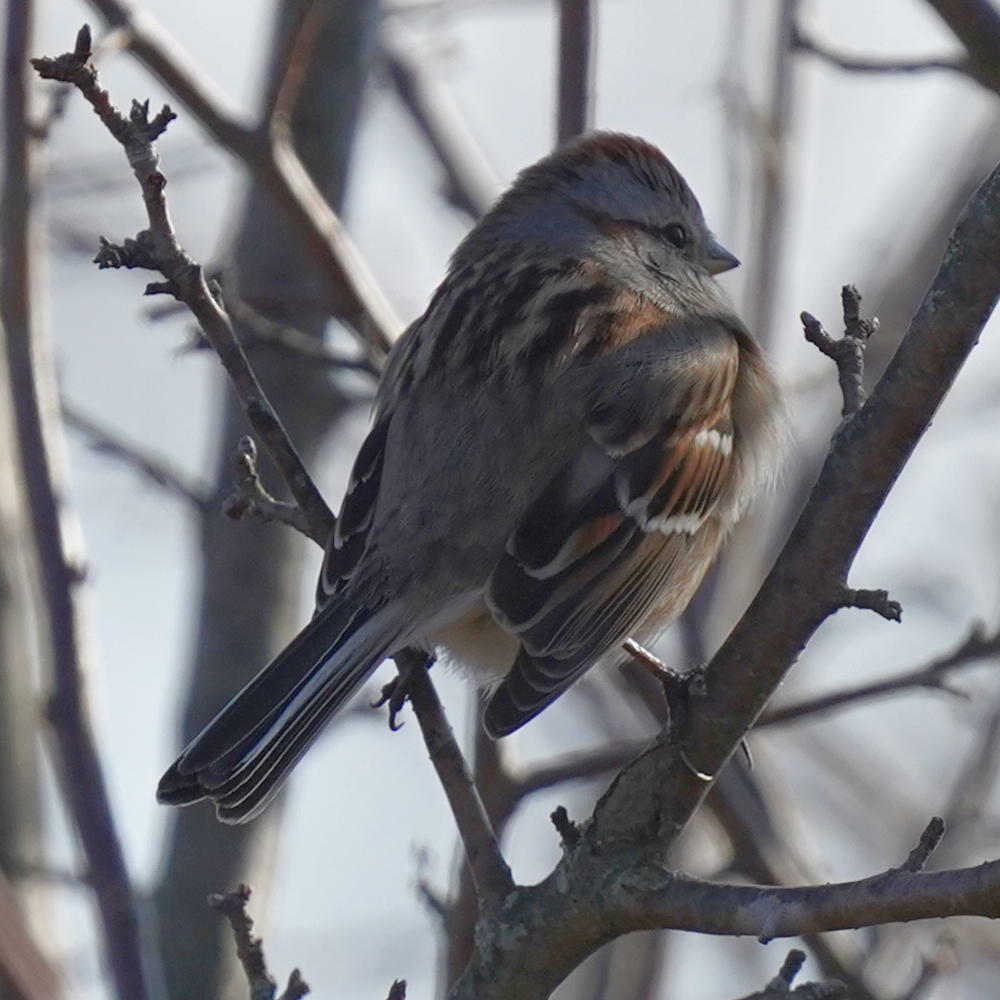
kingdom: Animalia
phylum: Chordata
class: Aves
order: Passeriformes
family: Passerellidae
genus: Spizelloides
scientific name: Spizelloides arborea
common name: American tree sparrow
